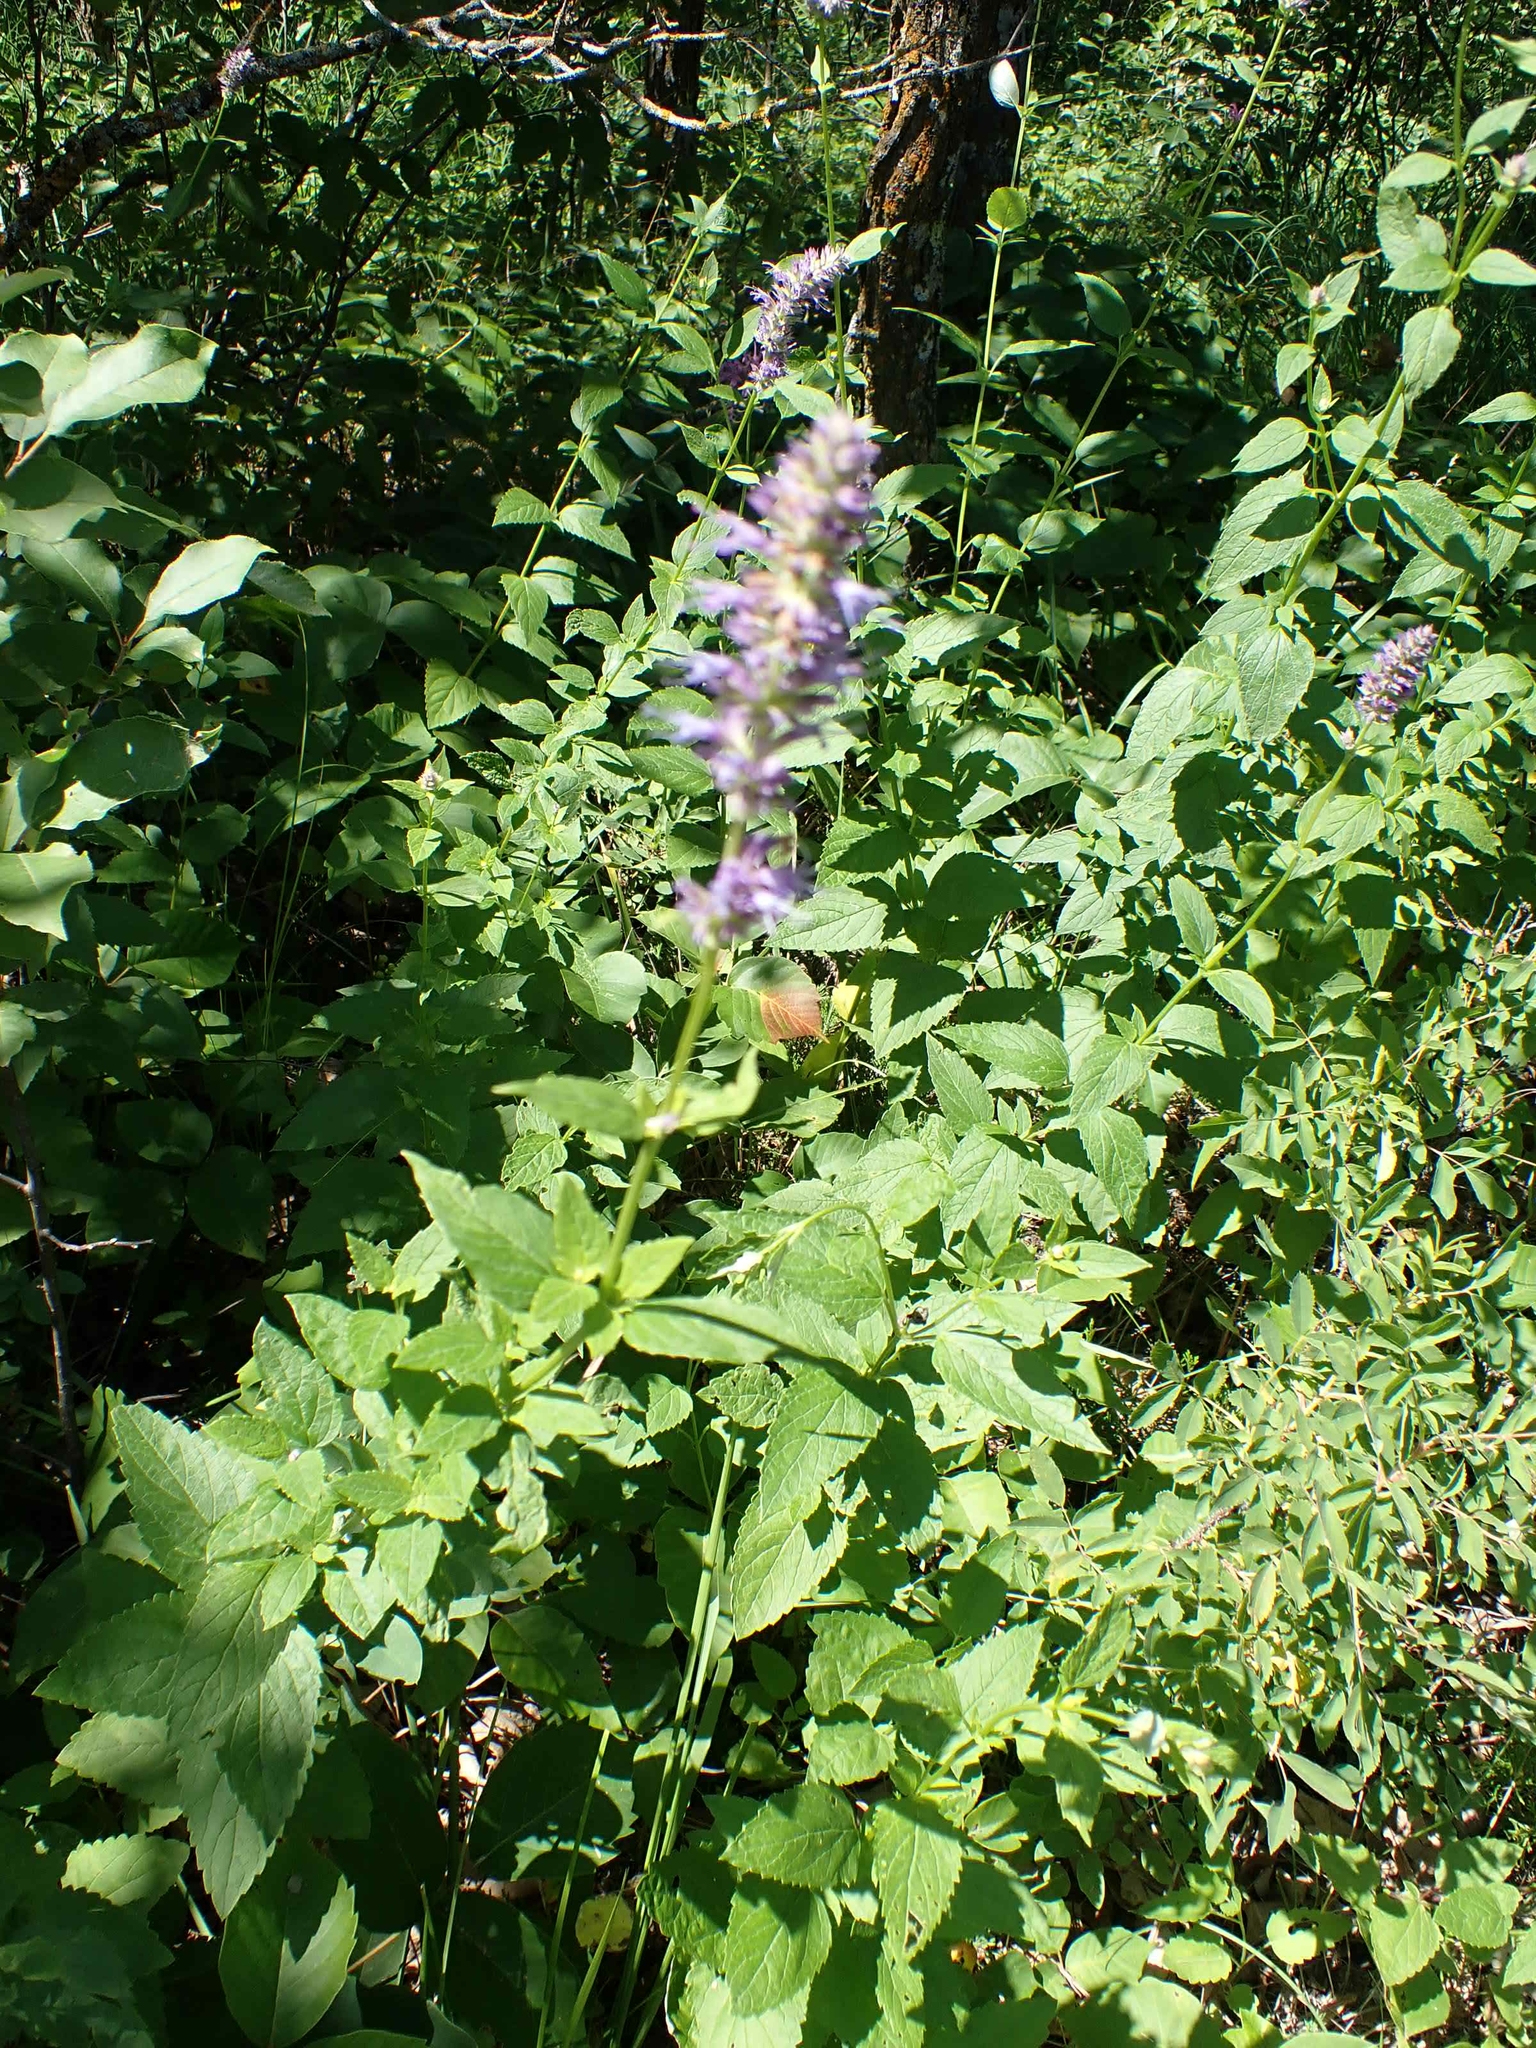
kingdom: Plantae
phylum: Tracheophyta
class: Magnoliopsida
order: Lamiales
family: Lamiaceae
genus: Agastache
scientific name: Agastache foeniculum
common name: Anise hyssop
